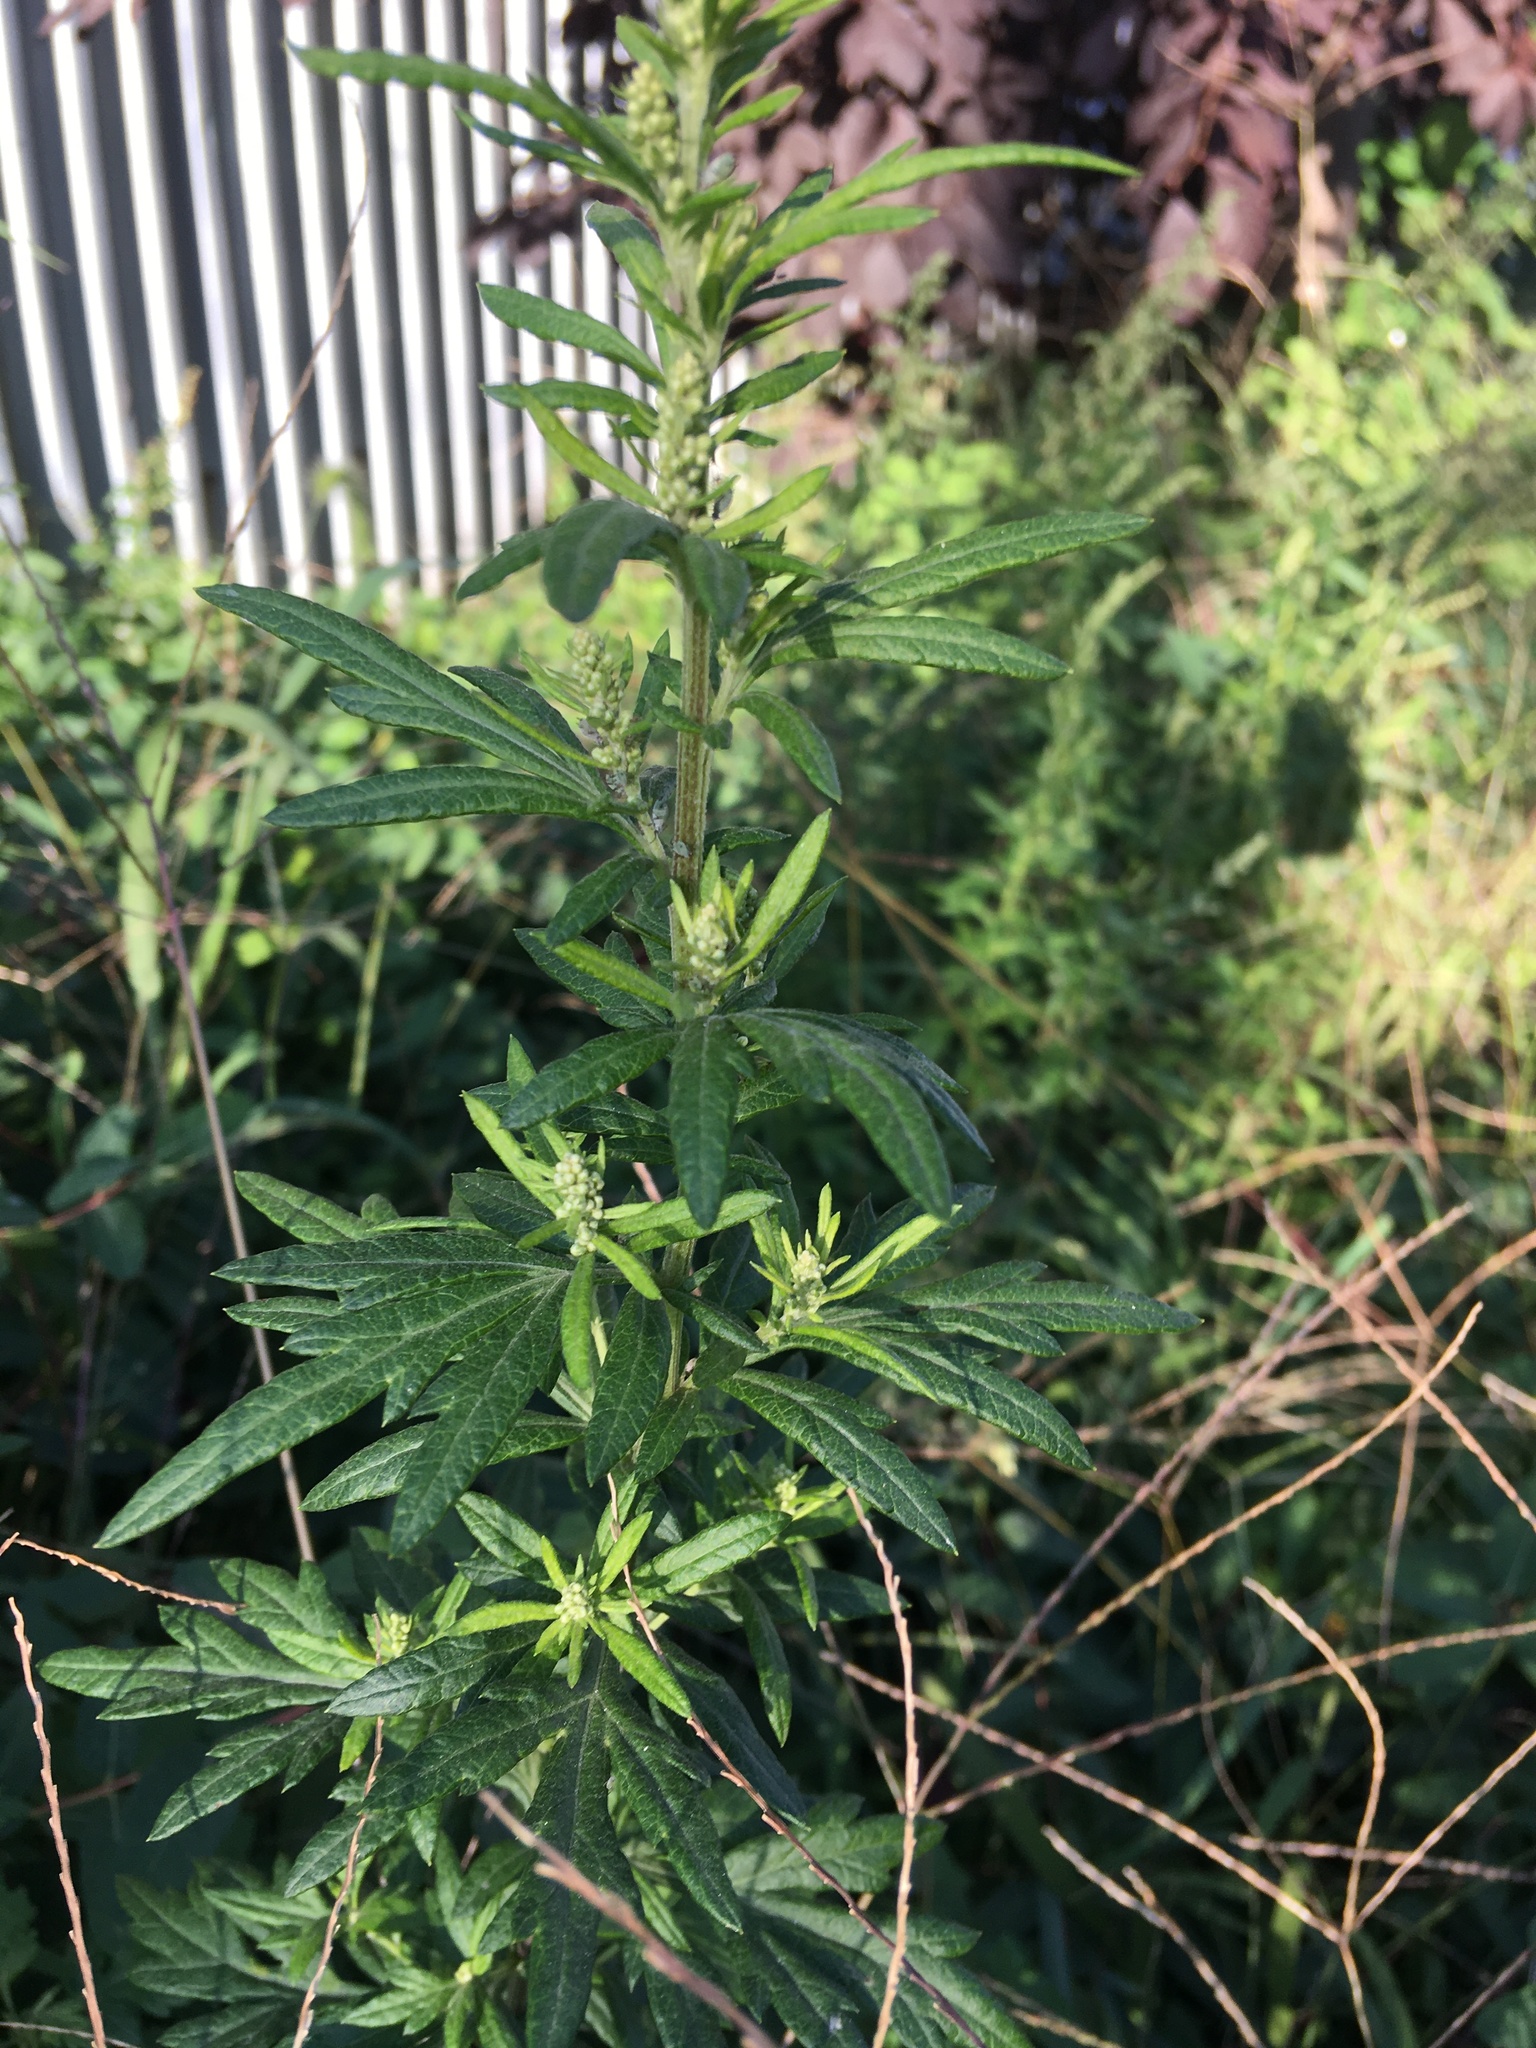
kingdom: Plantae
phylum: Tracheophyta
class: Magnoliopsida
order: Asterales
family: Asteraceae
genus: Artemisia
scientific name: Artemisia vulgaris
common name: Mugwort
